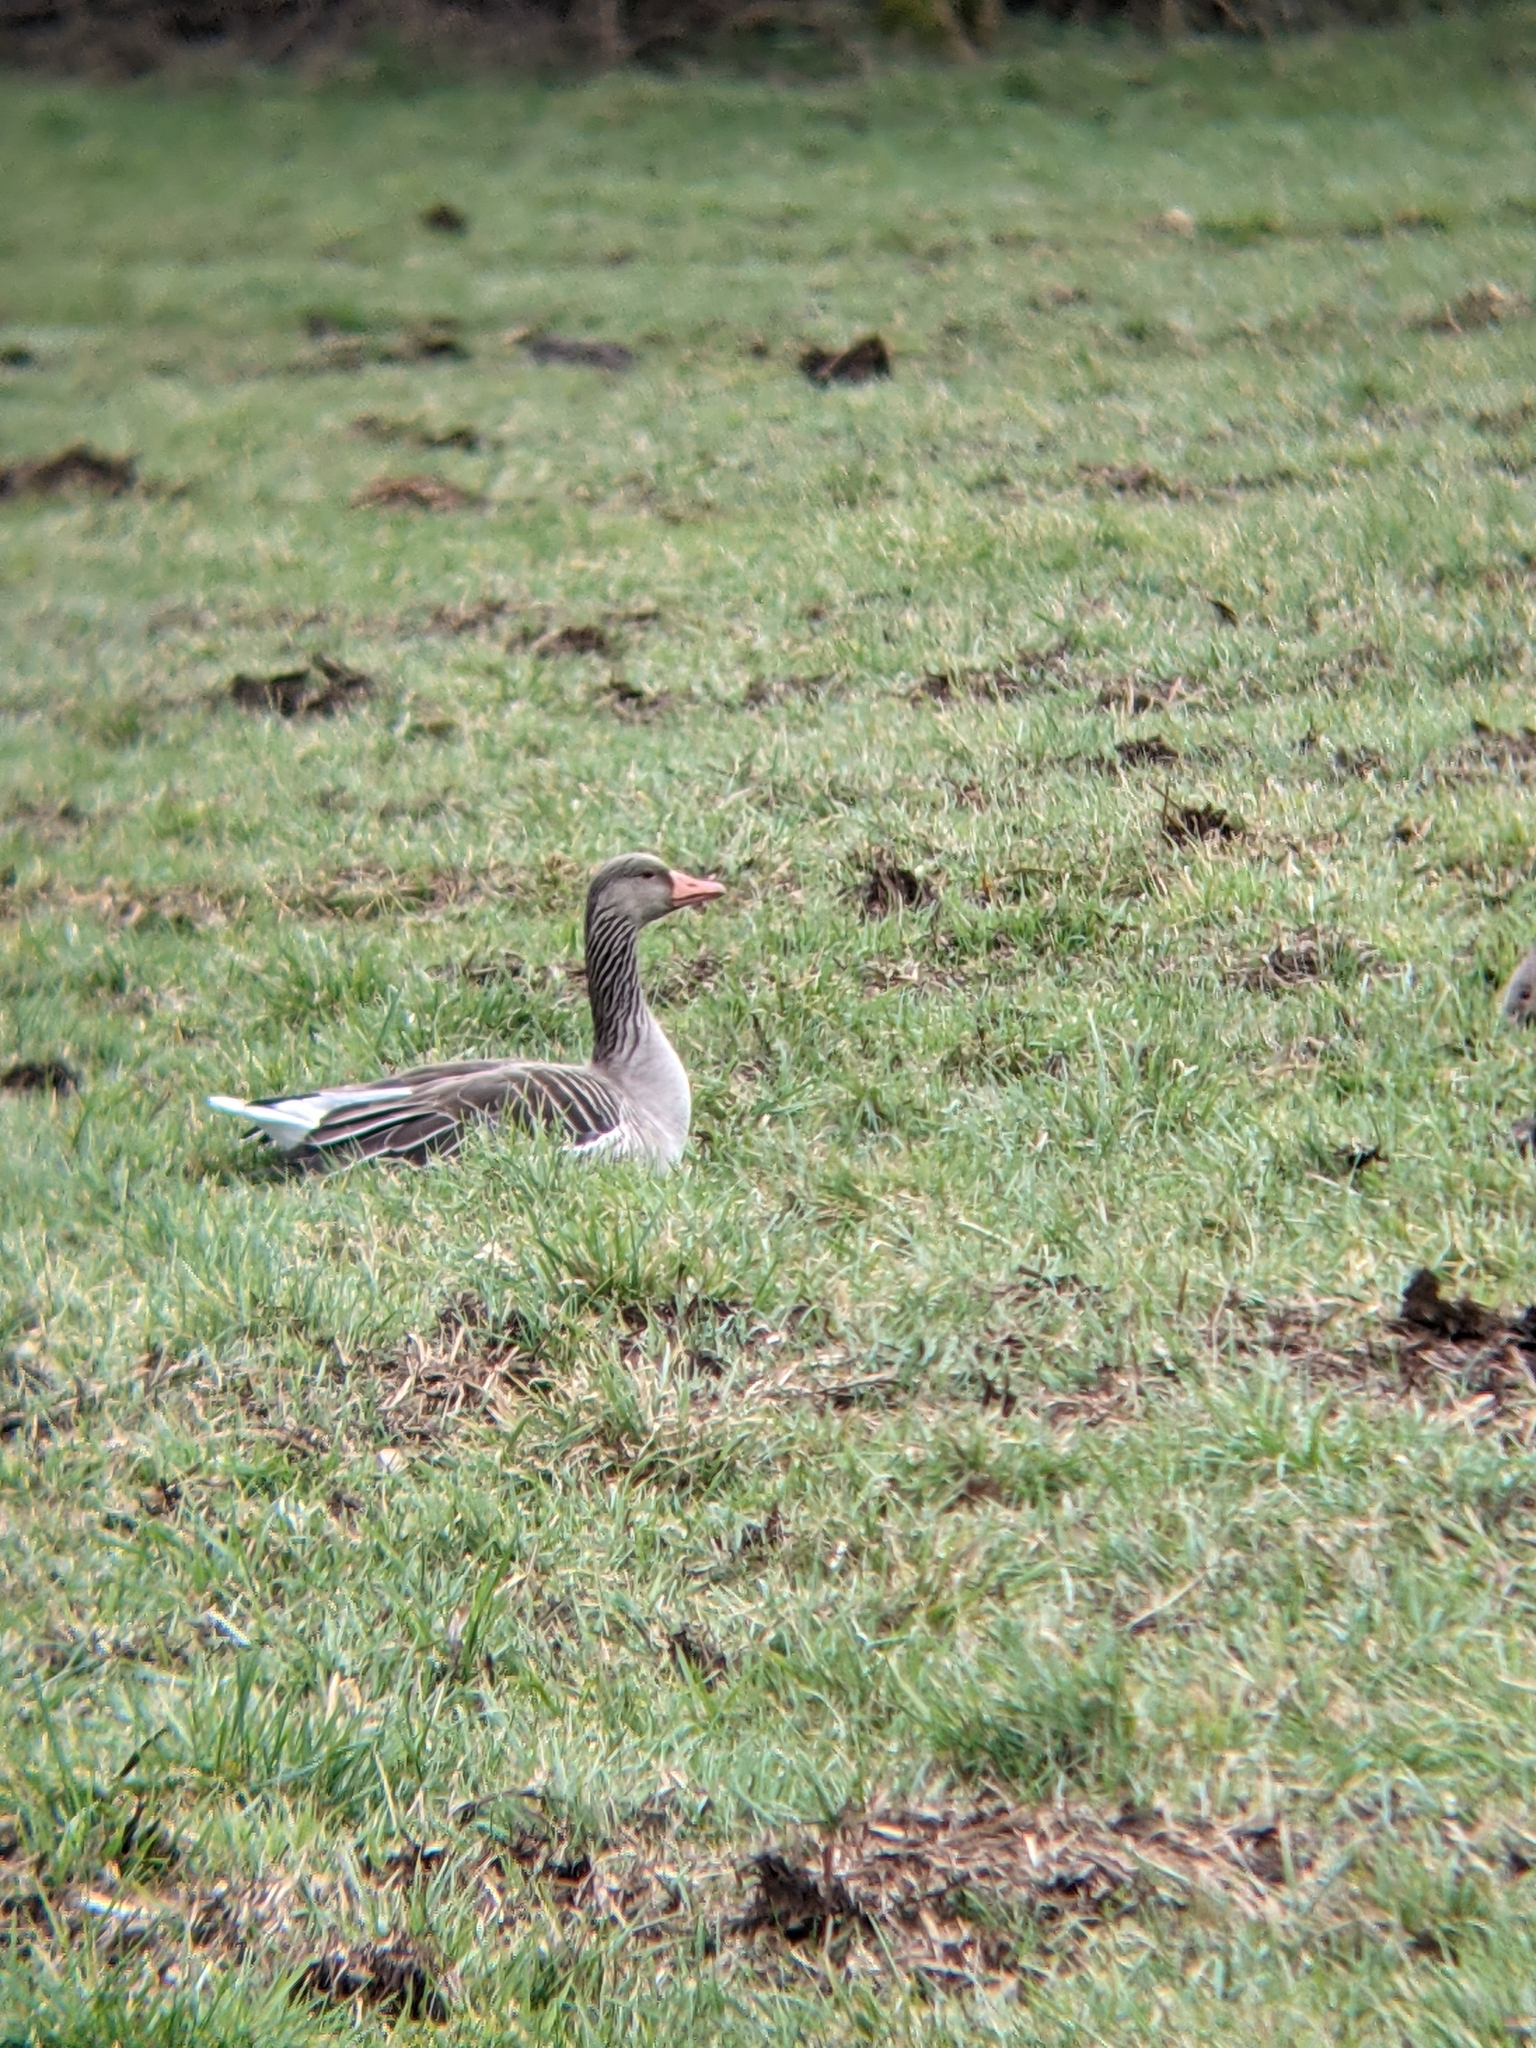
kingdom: Animalia
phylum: Chordata
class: Aves
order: Anseriformes
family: Anatidae
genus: Anser
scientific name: Anser anser
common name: Greylag goose
